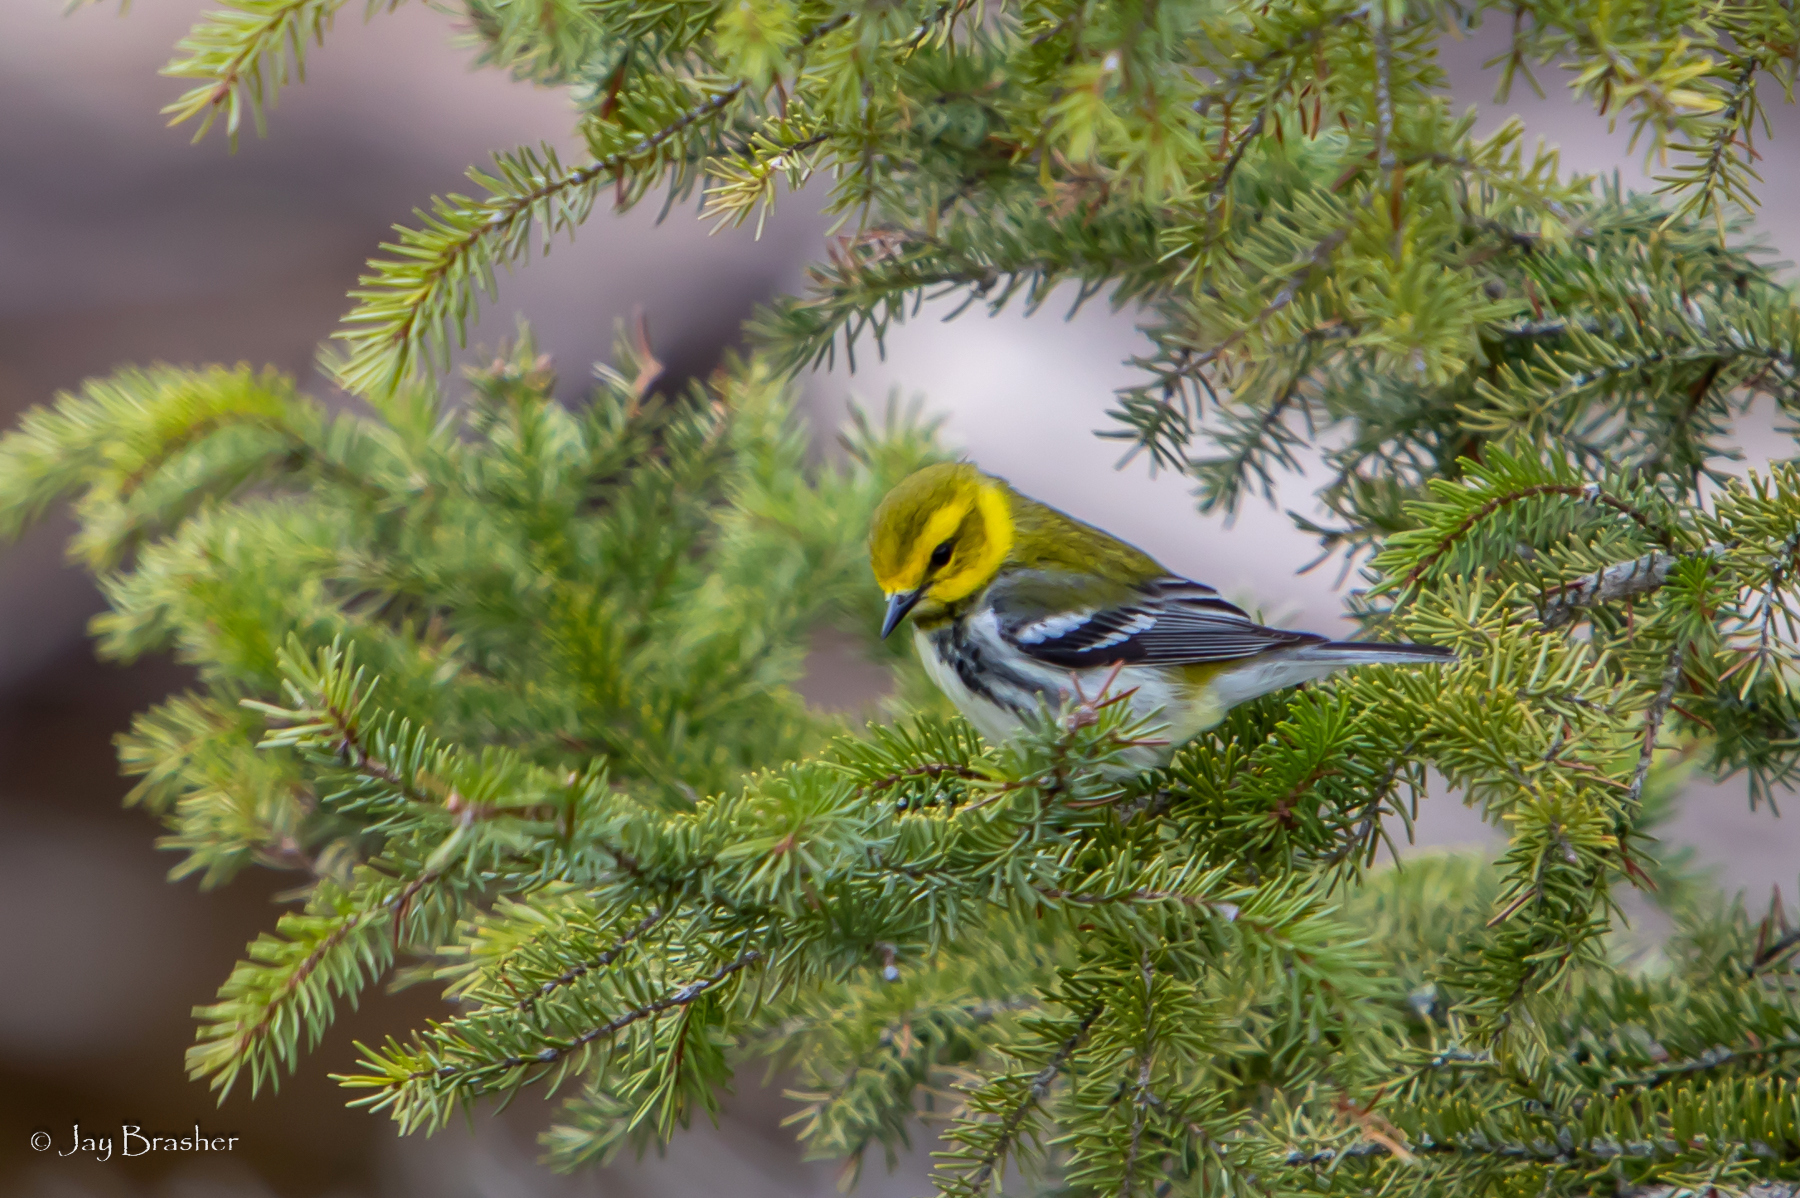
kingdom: Animalia
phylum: Chordata
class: Aves
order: Passeriformes
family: Parulidae
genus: Setophaga
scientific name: Setophaga virens
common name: Black-throated green warbler
